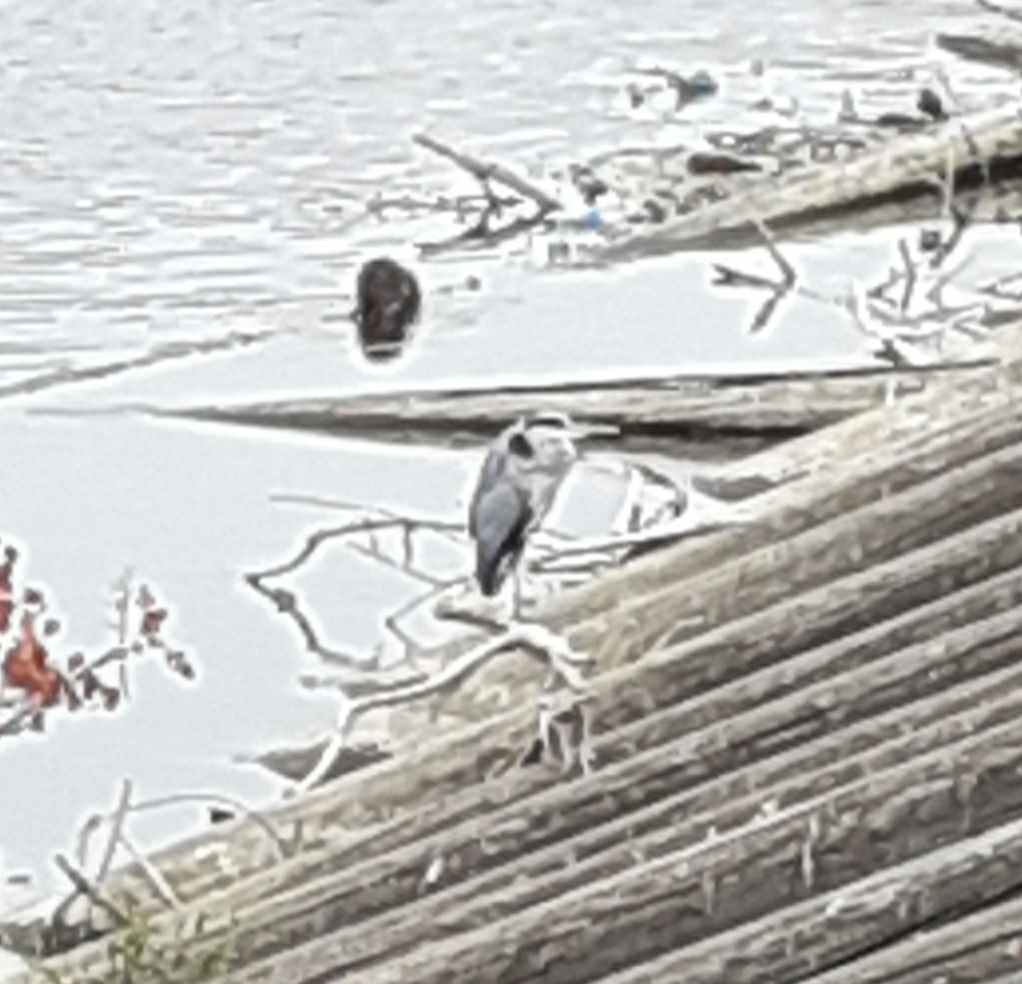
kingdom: Animalia
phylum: Chordata
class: Aves
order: Pelecaniformes
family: Ardeidae
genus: Ardea
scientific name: Ardea cinerea
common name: Grey heron
